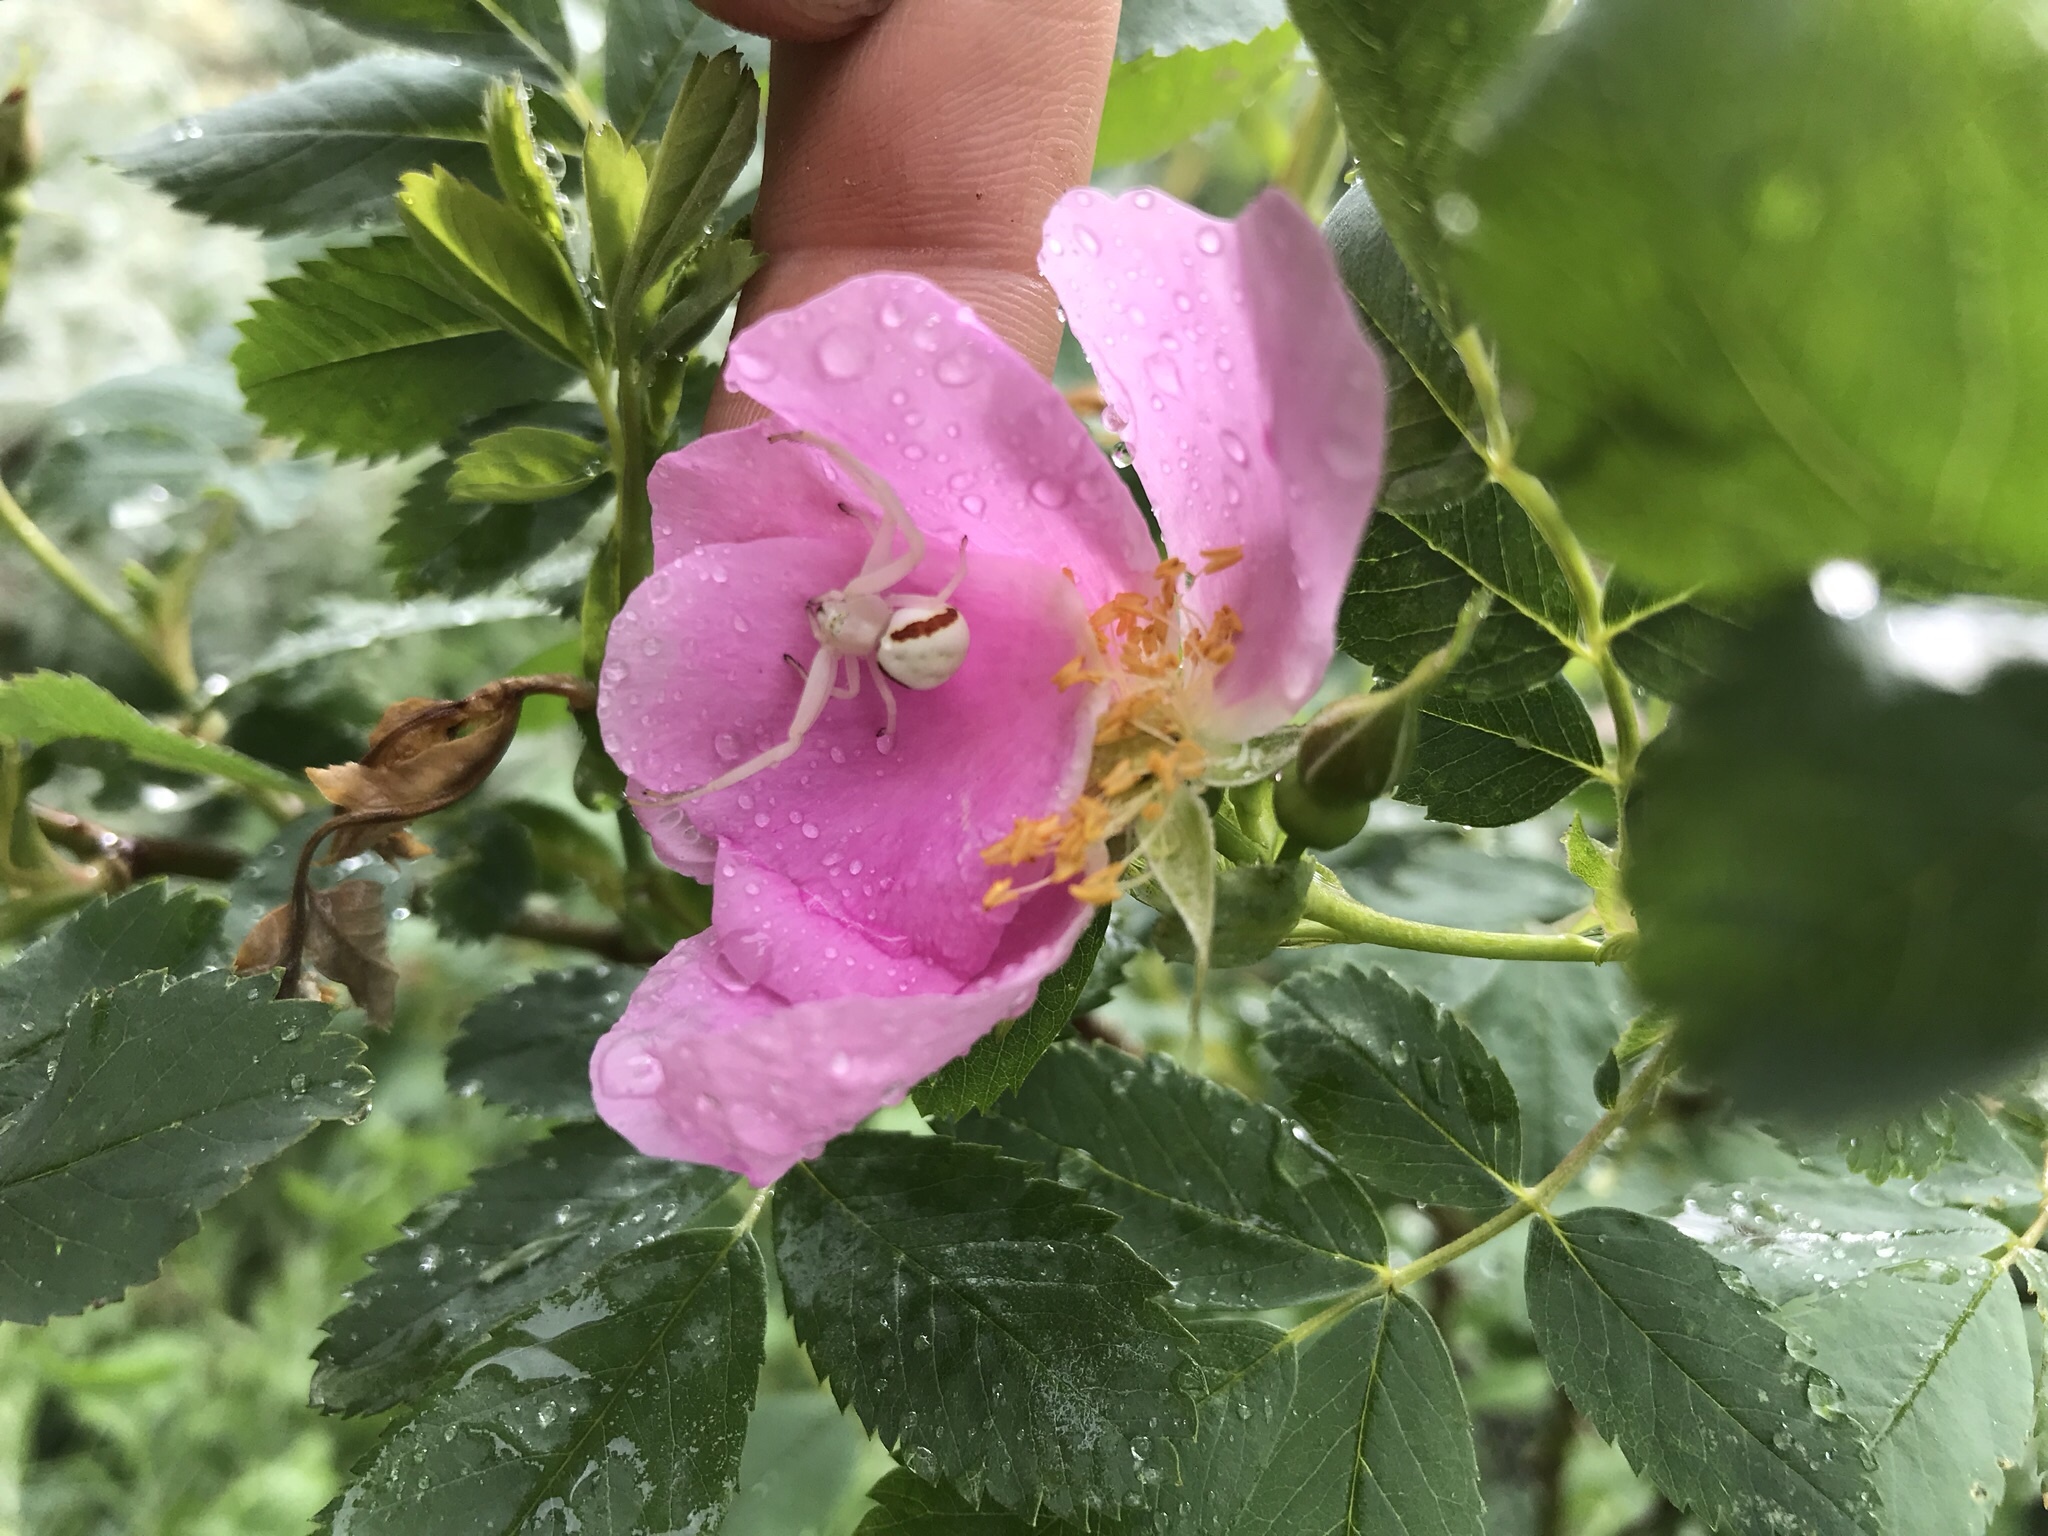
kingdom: Animalia
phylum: Arthropoda
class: Arachnida
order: Araneae
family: Thomisidae
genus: Misumena
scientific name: Misumena vatia
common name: Goldenrod crab spider
